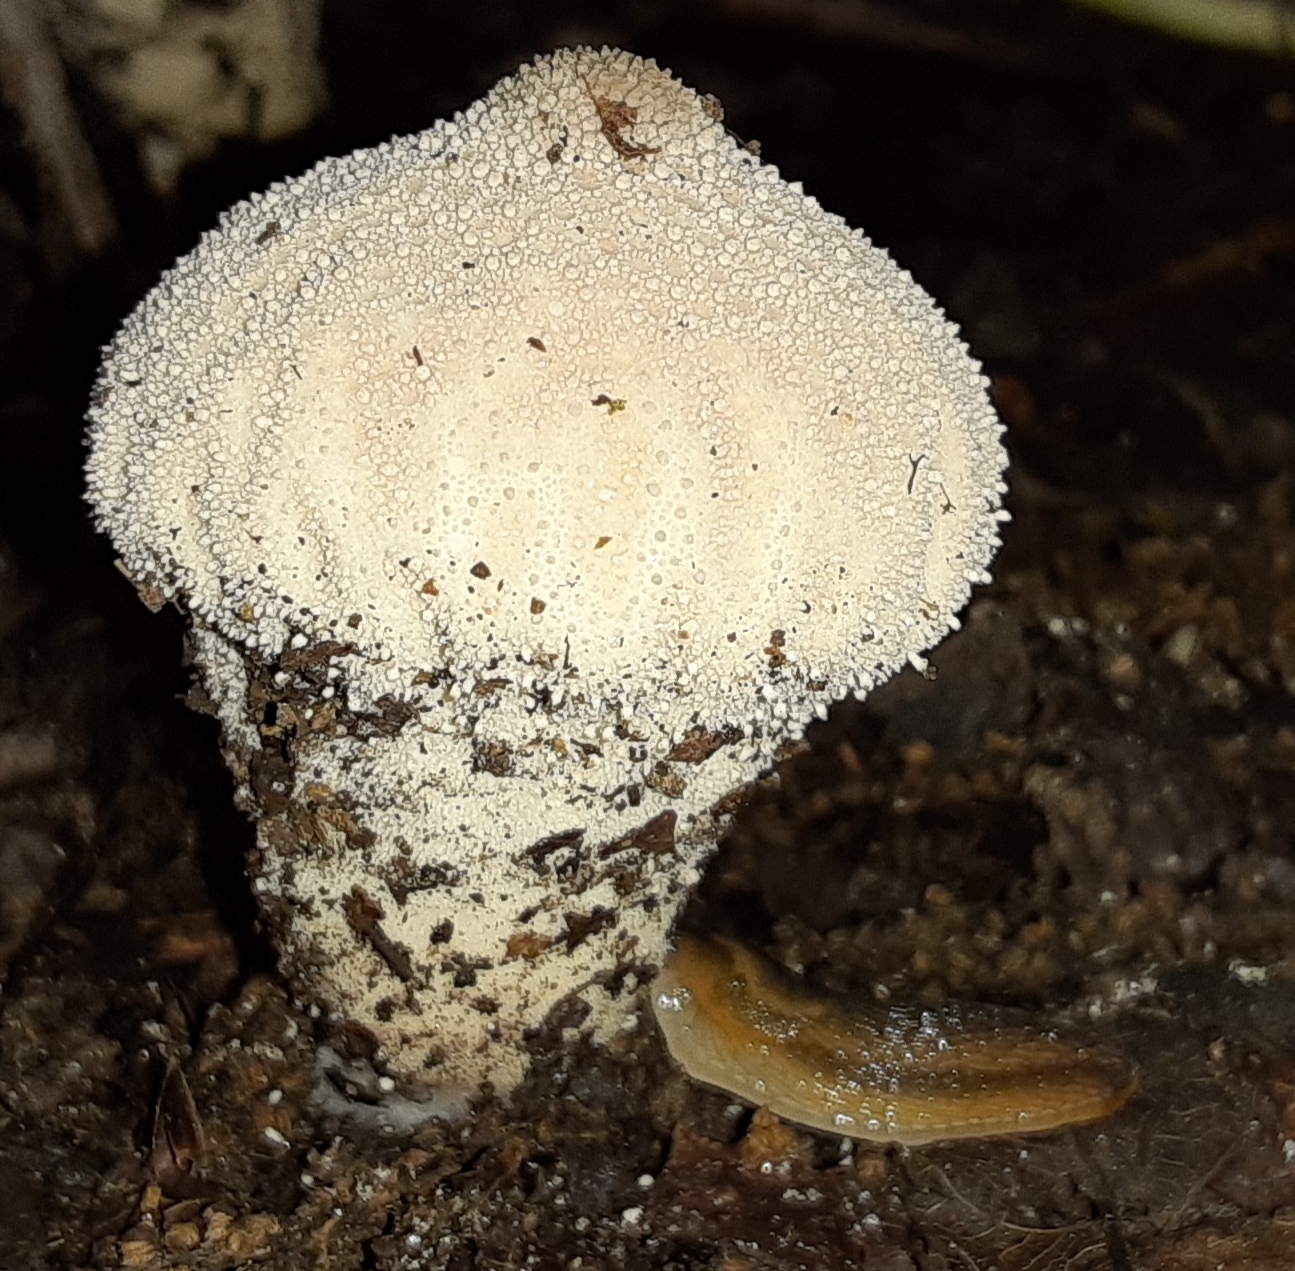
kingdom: Fungi
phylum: Basidiomycota
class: Agaricomycetes
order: Agaricales
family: Lycoperdaceae
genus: Lycoperdon
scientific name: Lycoperdon perlatum
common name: Common puffball
